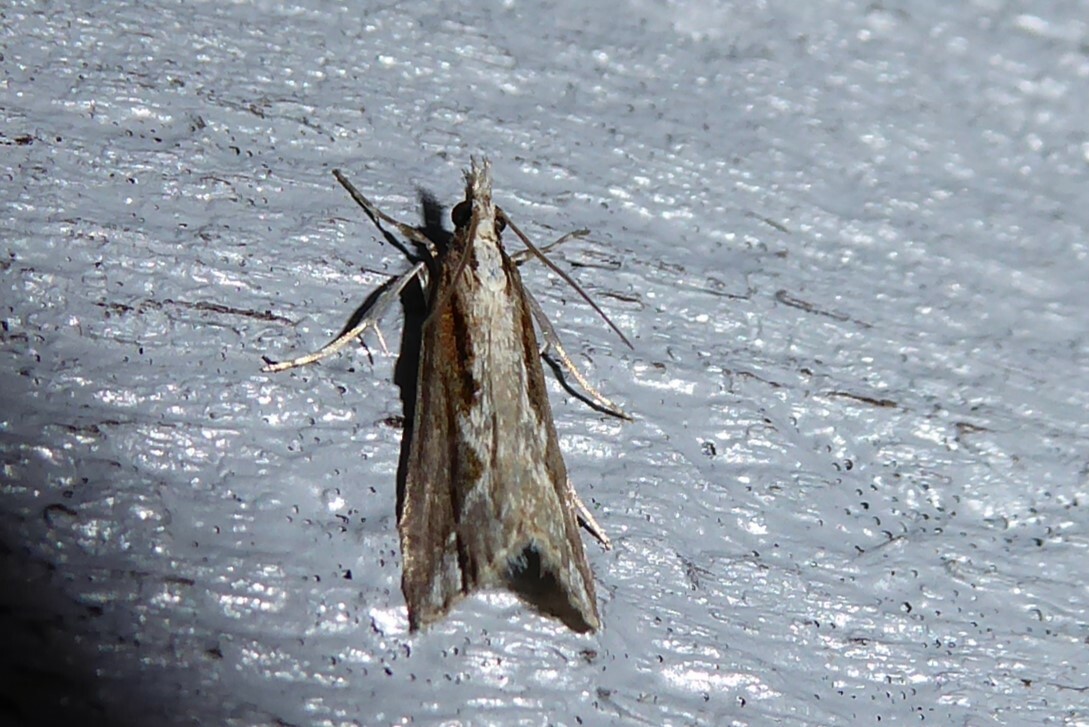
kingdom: Animalia
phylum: Arthropoda
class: Insecta
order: Lepidoptera
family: Crambidae
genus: Eudonia
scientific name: Eudonia steropaea
